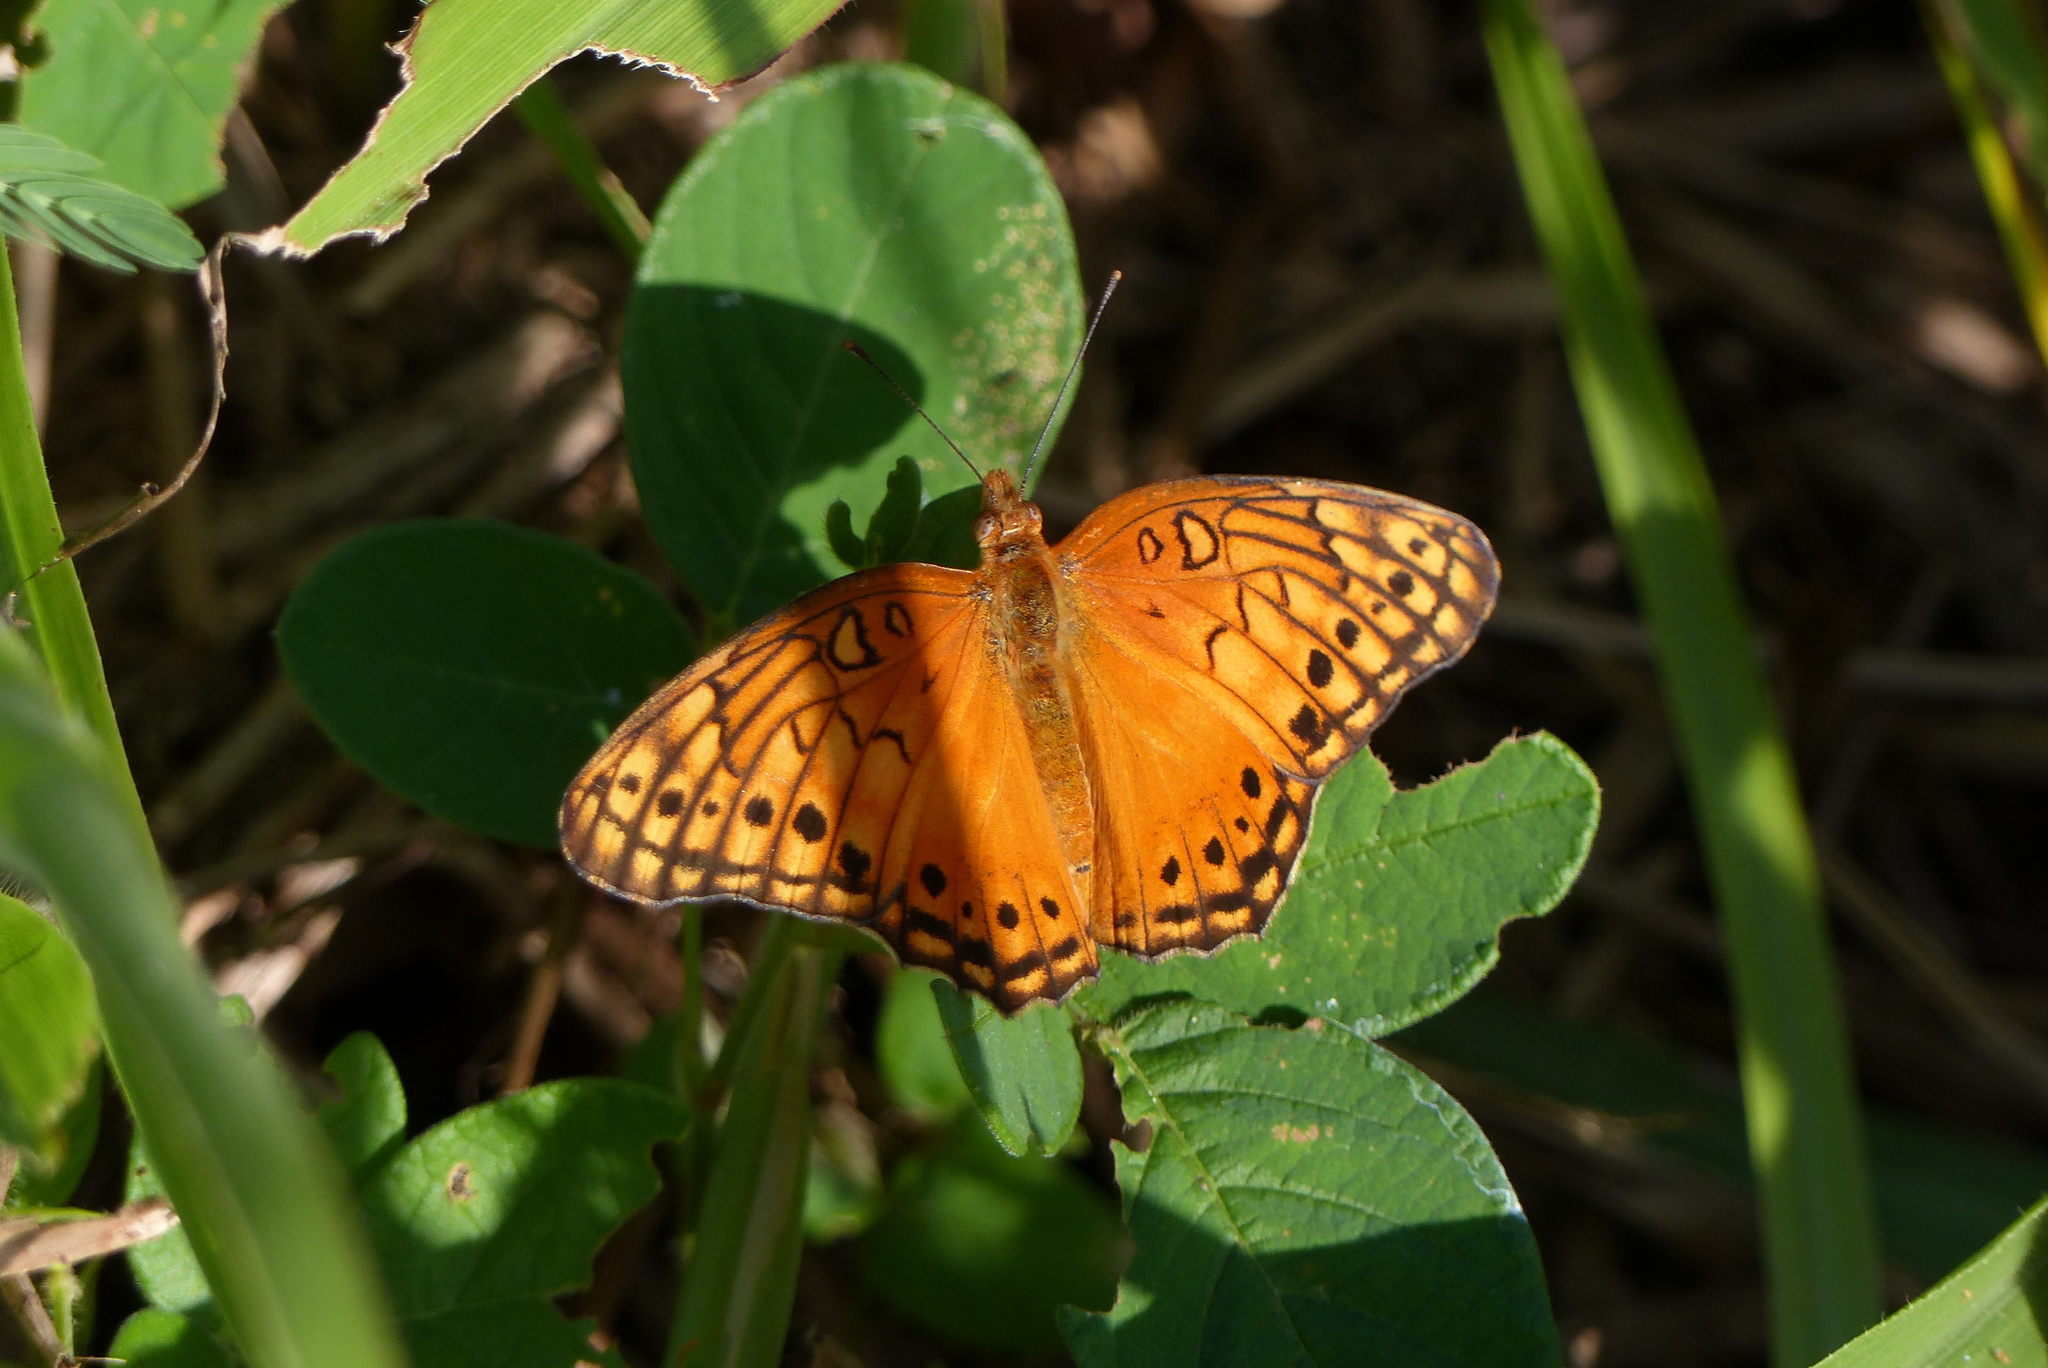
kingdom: Animalia
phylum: Arthropoda
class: Insecta
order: Lepidoptera
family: Nymphalidae
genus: Euptoieta
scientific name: Euptoieta hegesia
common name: Mexican fritillary
